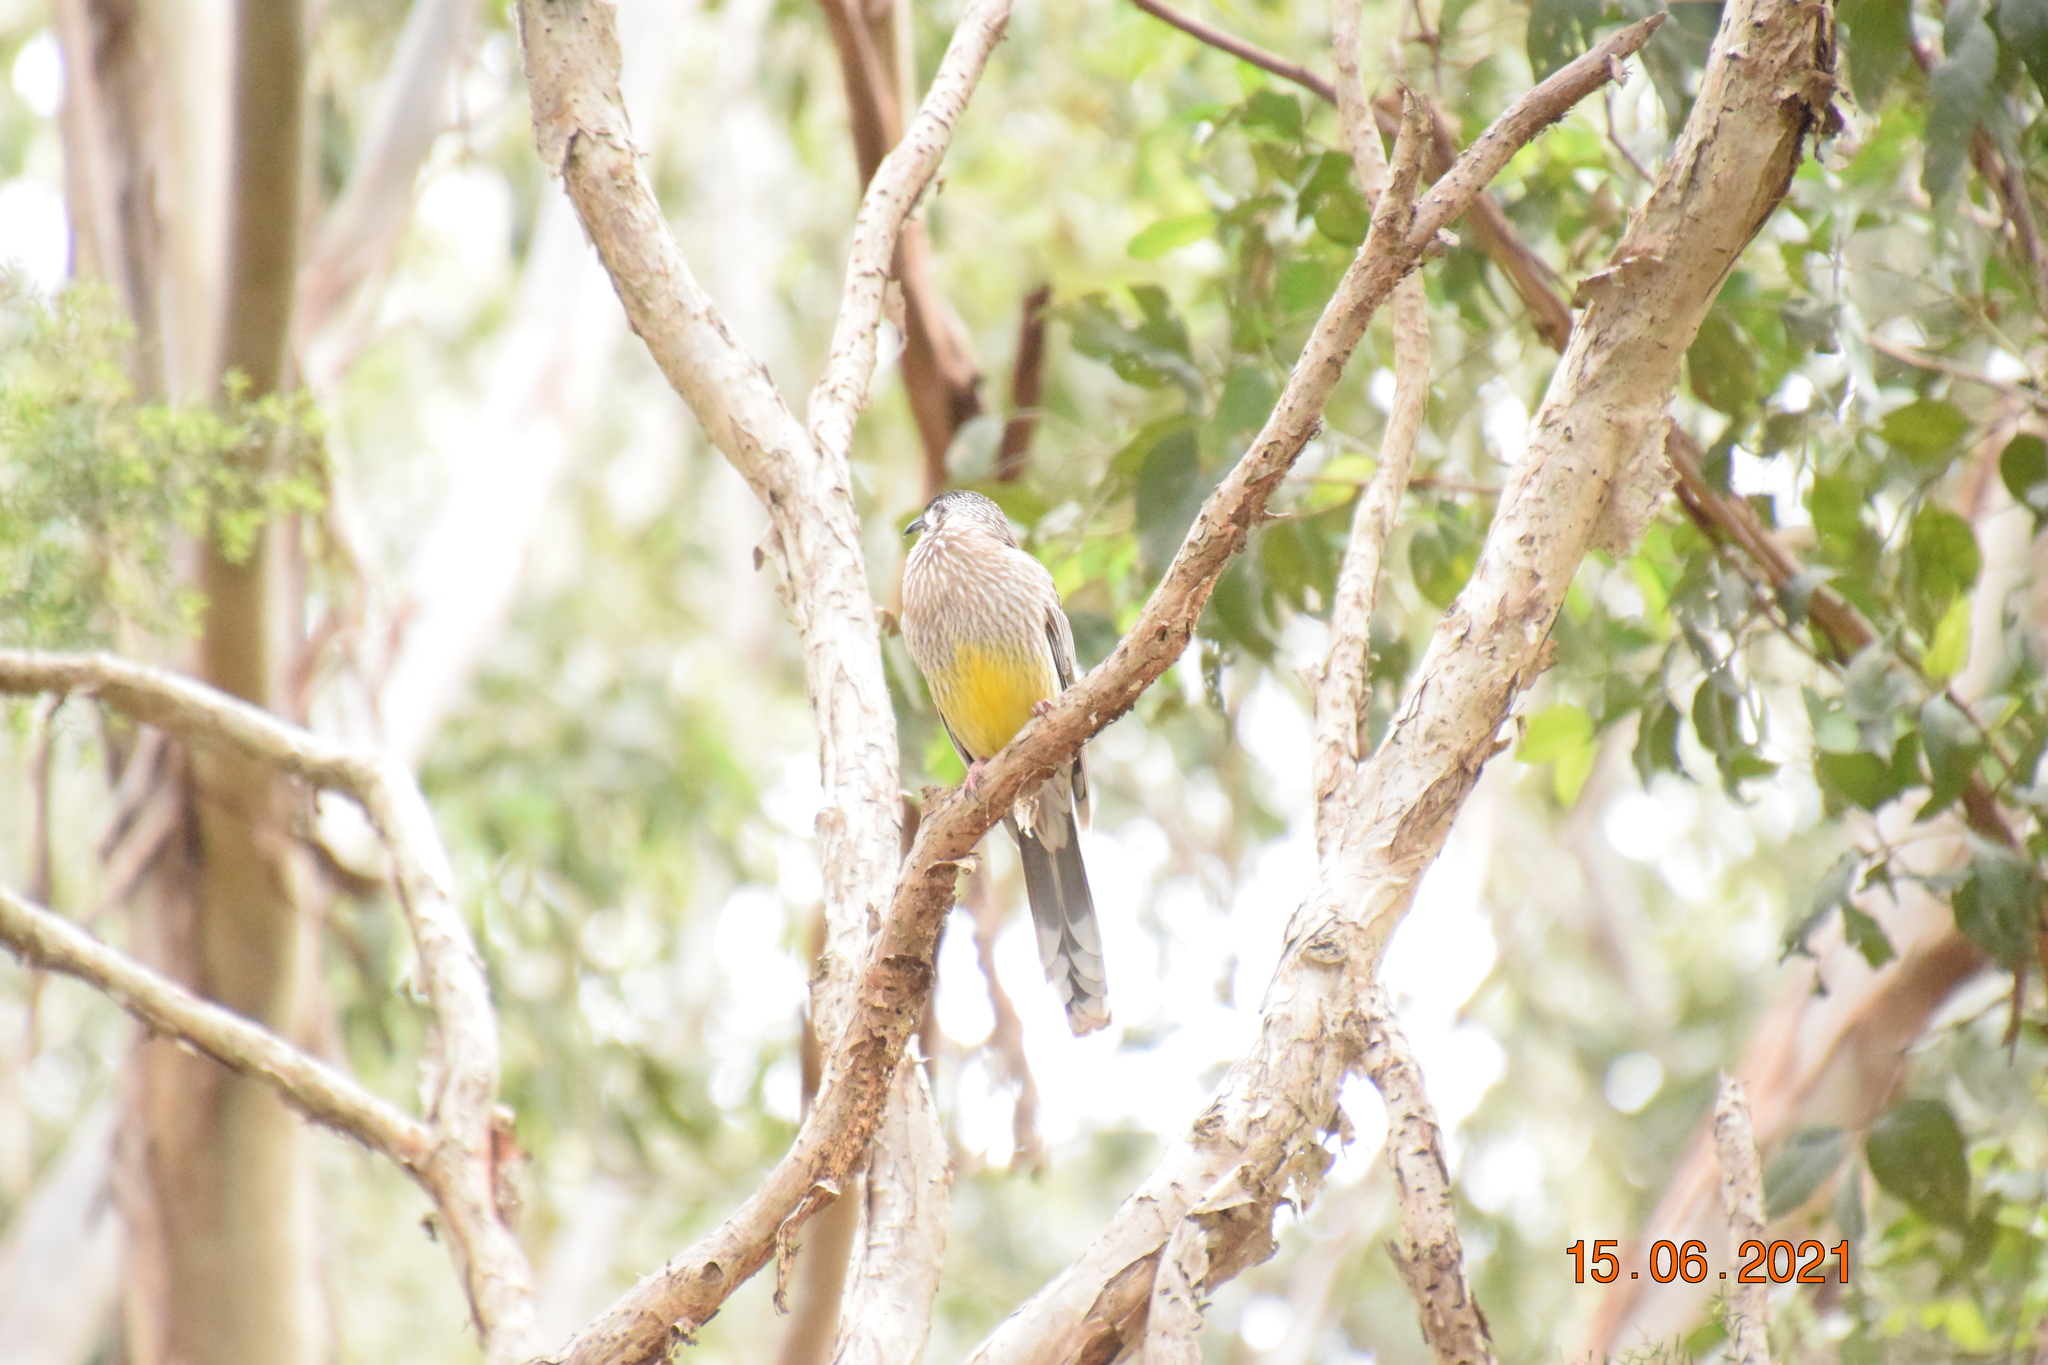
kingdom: Animalia
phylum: Chordata
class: Aves
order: Passeriformes
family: Meliphagidae
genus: Anthochaera
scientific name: Anthochaera carunculata
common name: Red wattlebird
